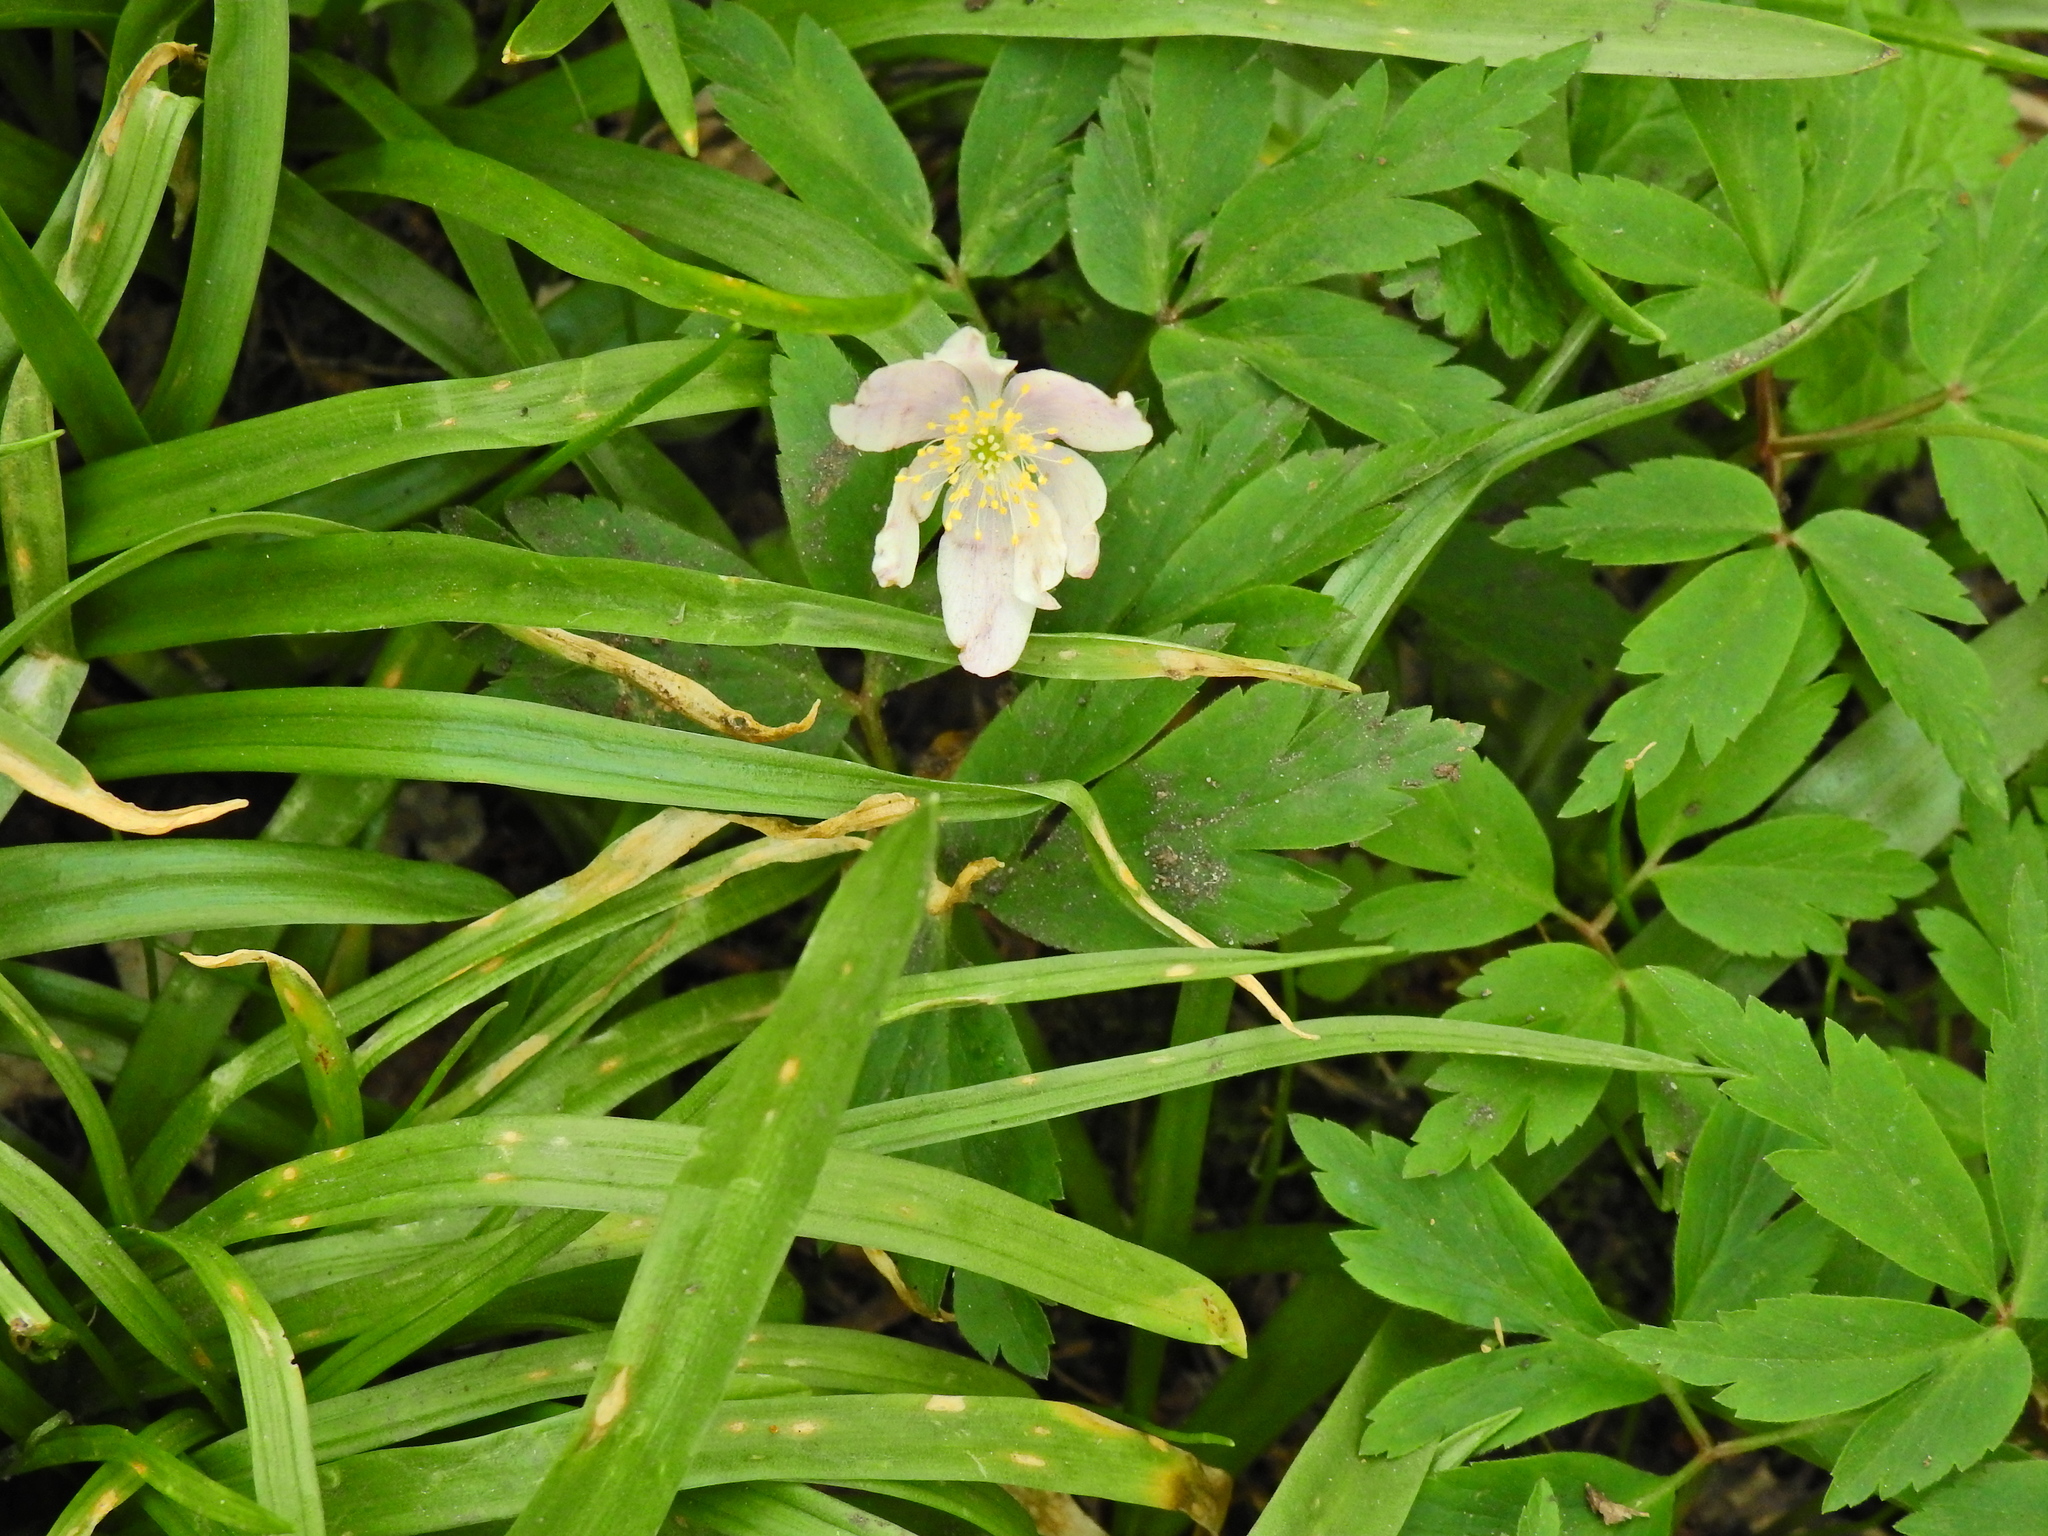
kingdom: Plantae
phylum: Tracheophyta
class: Magnoliopsida
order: Ranunculales
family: Ranunculaceae
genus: Anemone
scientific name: Anemone nemorosa
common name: Wood anemone
